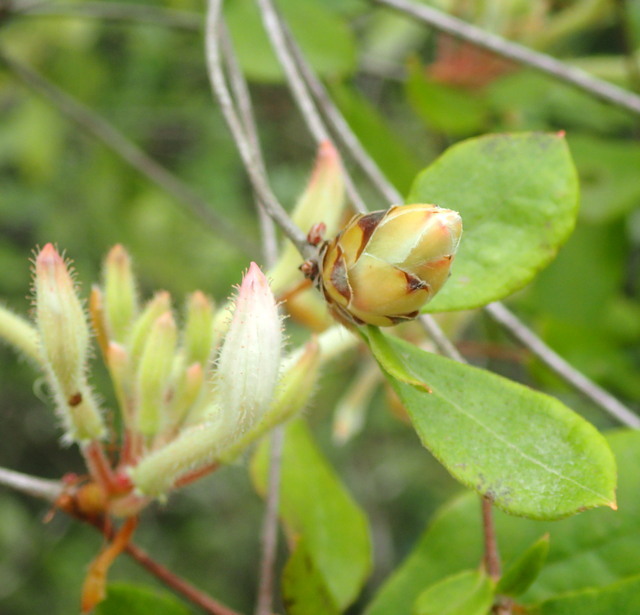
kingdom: Plantae
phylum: Tracheophyta
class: Magnoliopsida
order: Ericales
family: Ericaceae
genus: Rhododendron
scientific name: Rhododendron serrulatum
